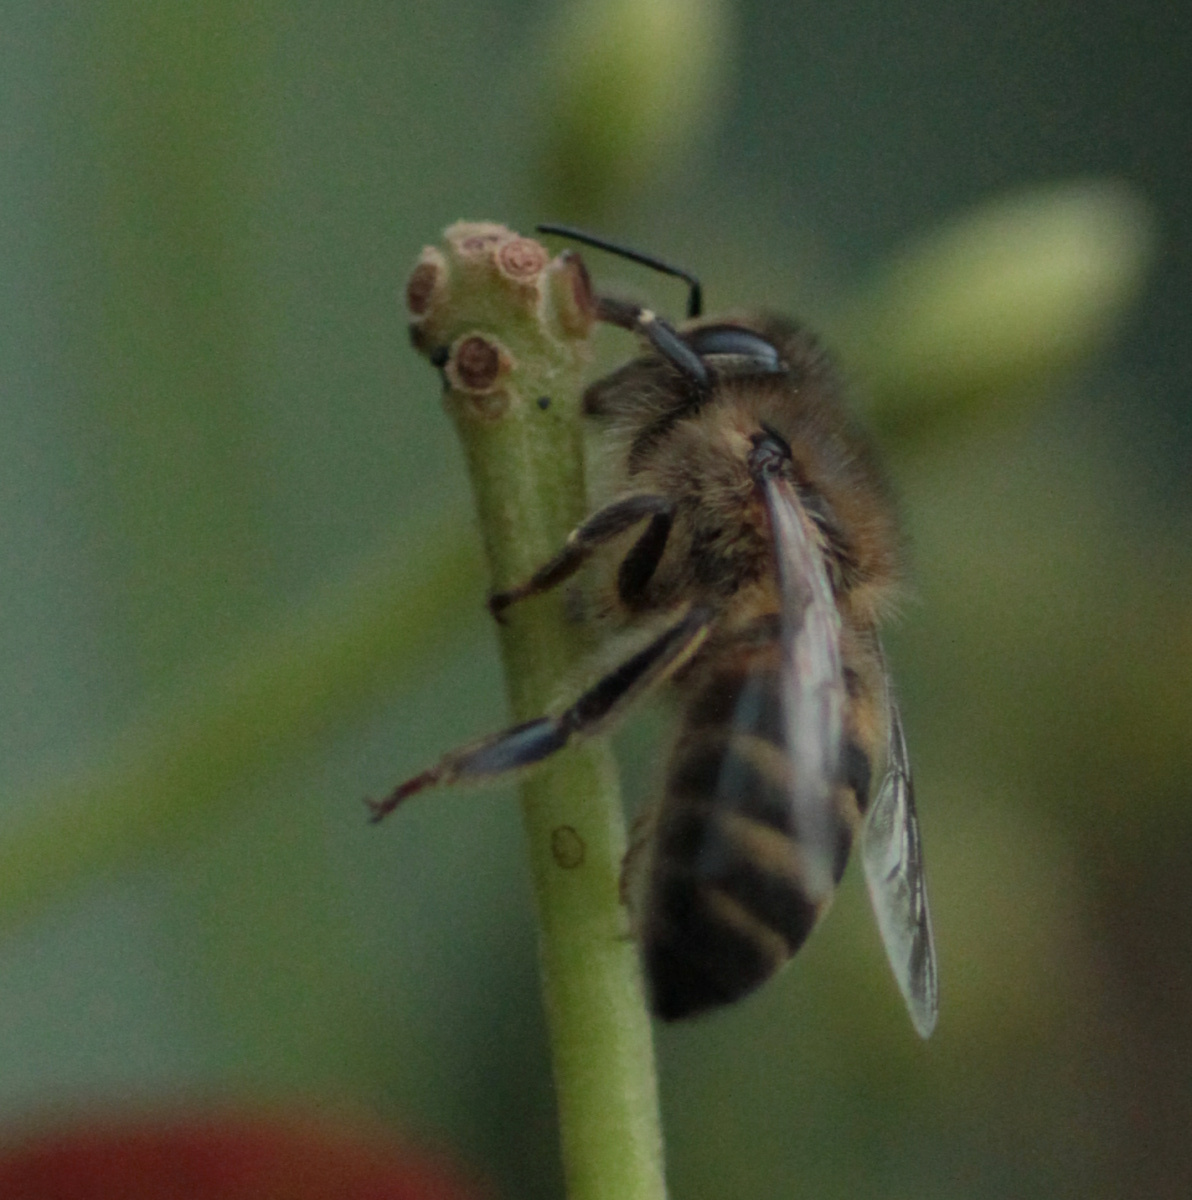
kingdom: Animalia
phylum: Arthropoda
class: Insecta
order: Hymenoptera
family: Apidae
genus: Apis
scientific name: Apis mellifera
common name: Honey bee
